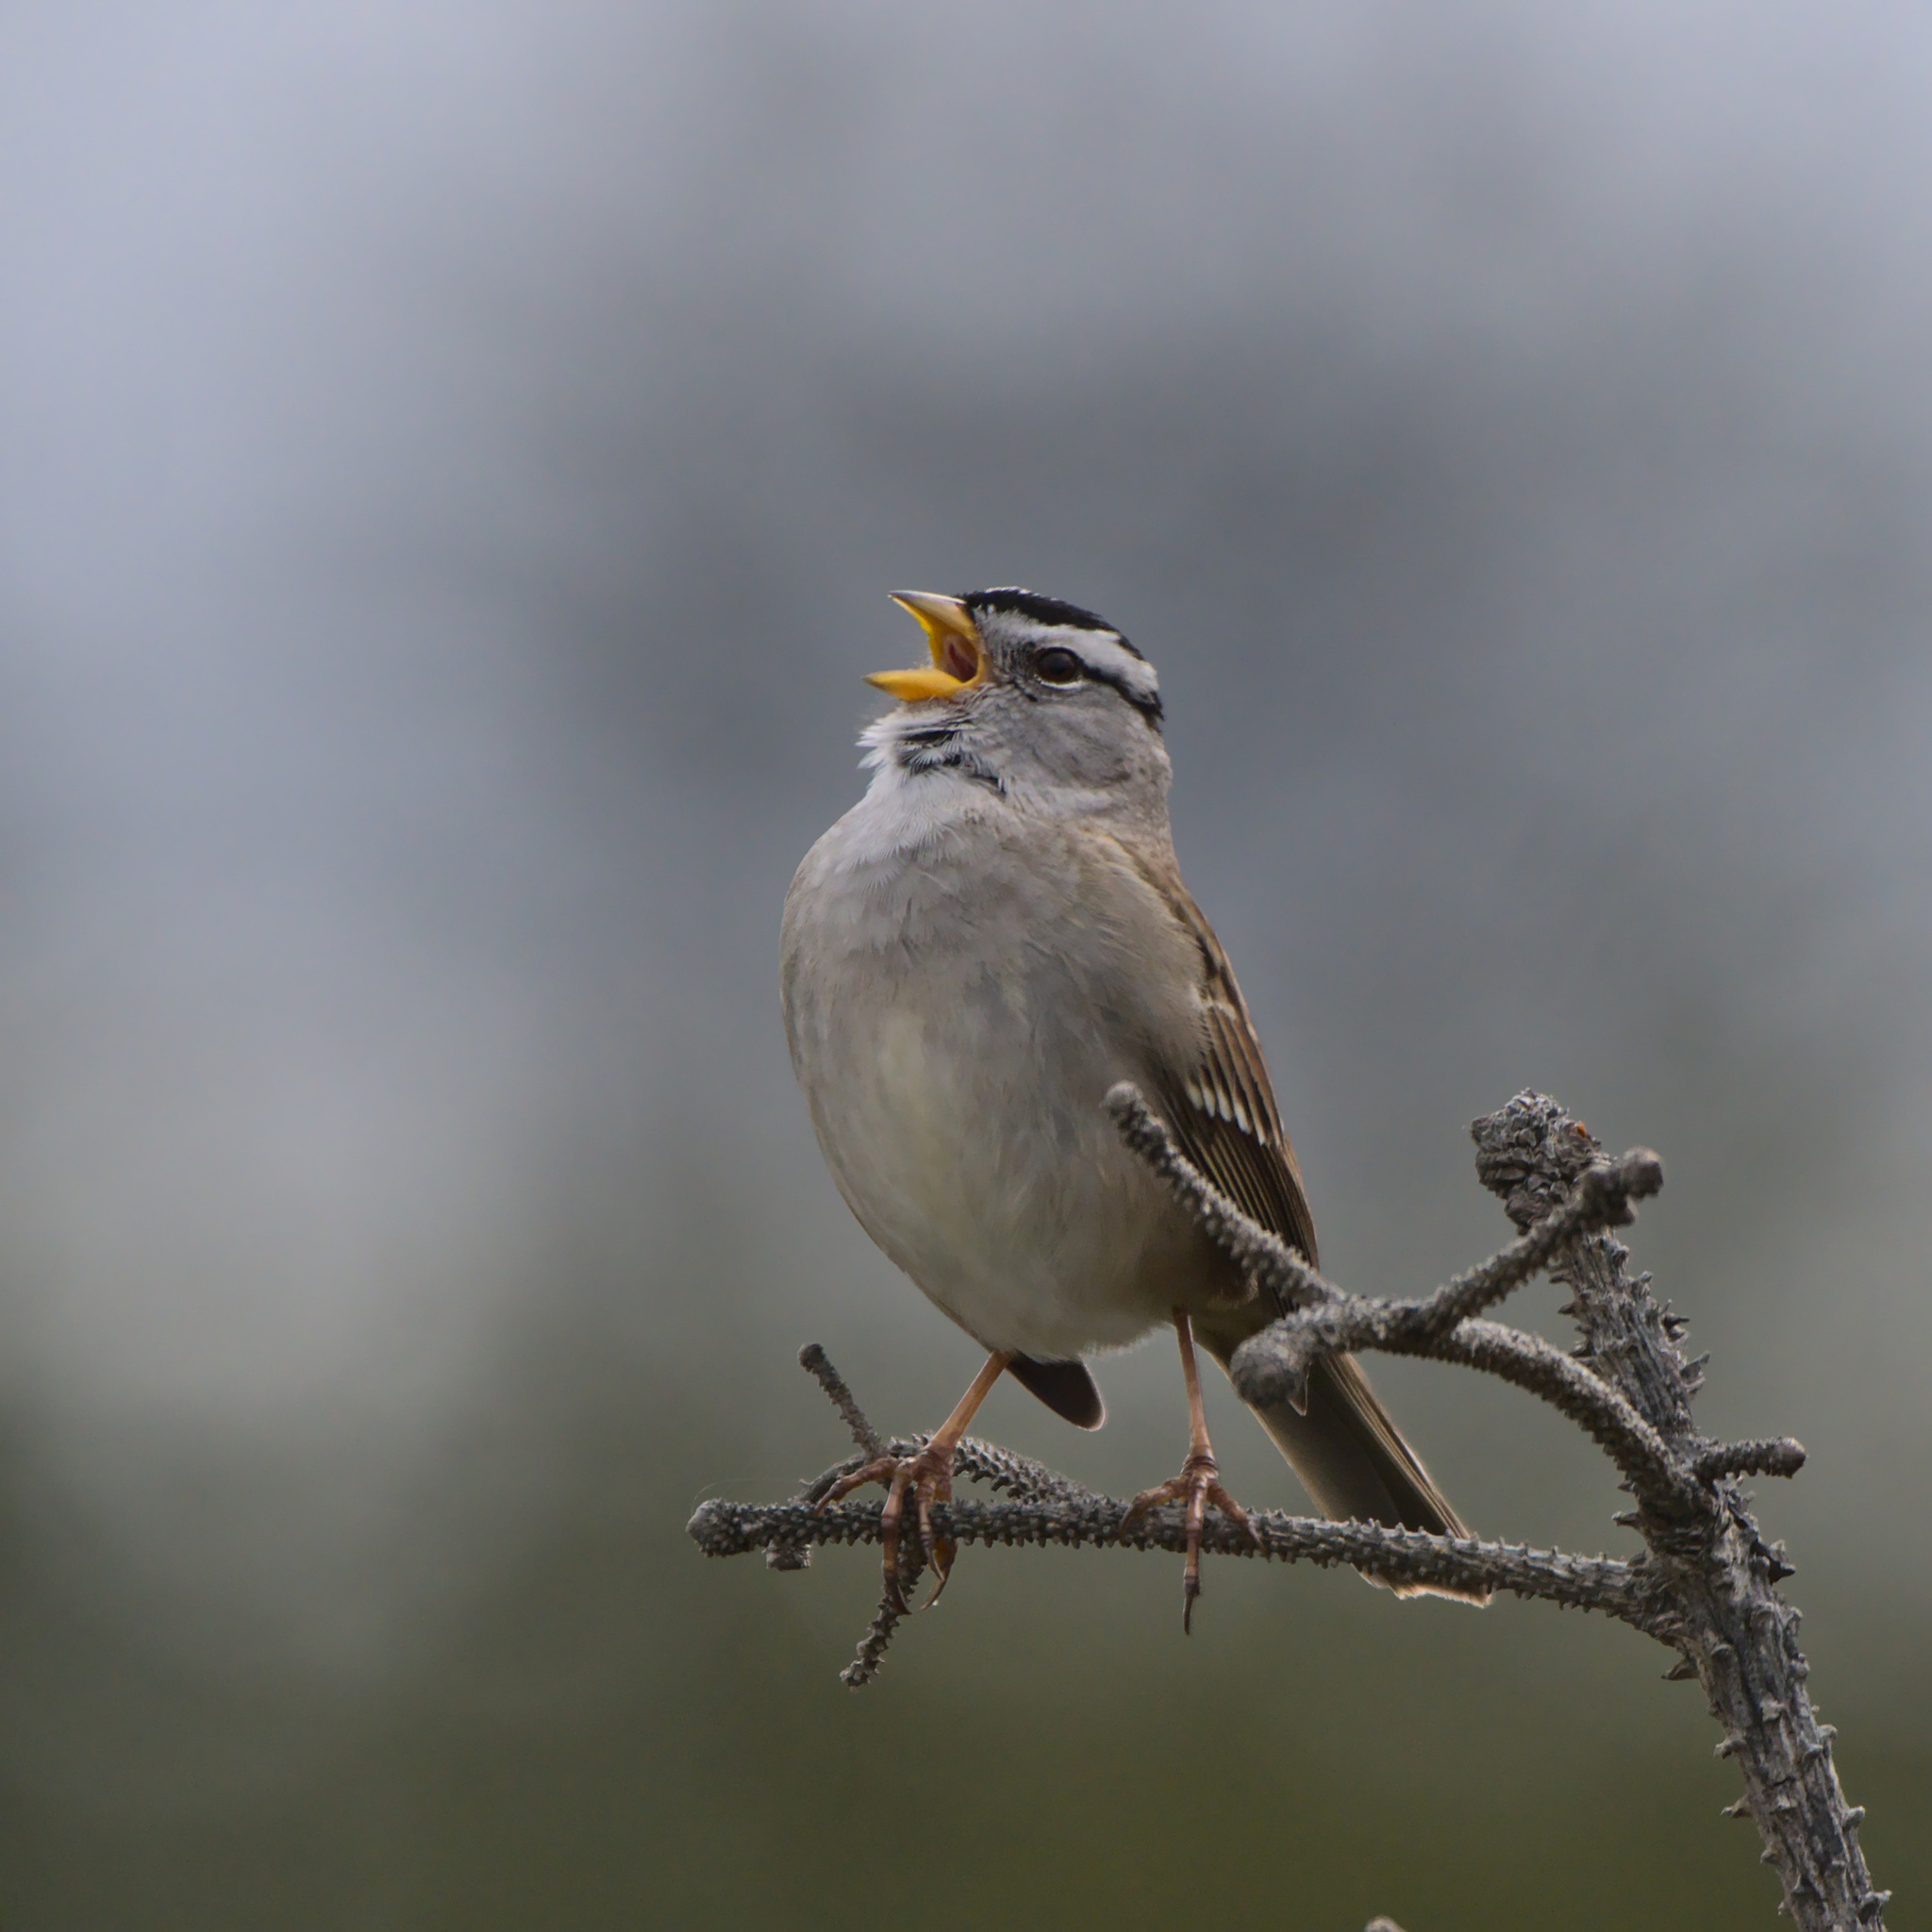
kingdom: Animalia
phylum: Chordata
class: Aves
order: Passeriformes
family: Passerellidae
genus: Zonotrichia
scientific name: Zonotrichia leucophrys
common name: White-crowned sparrow
